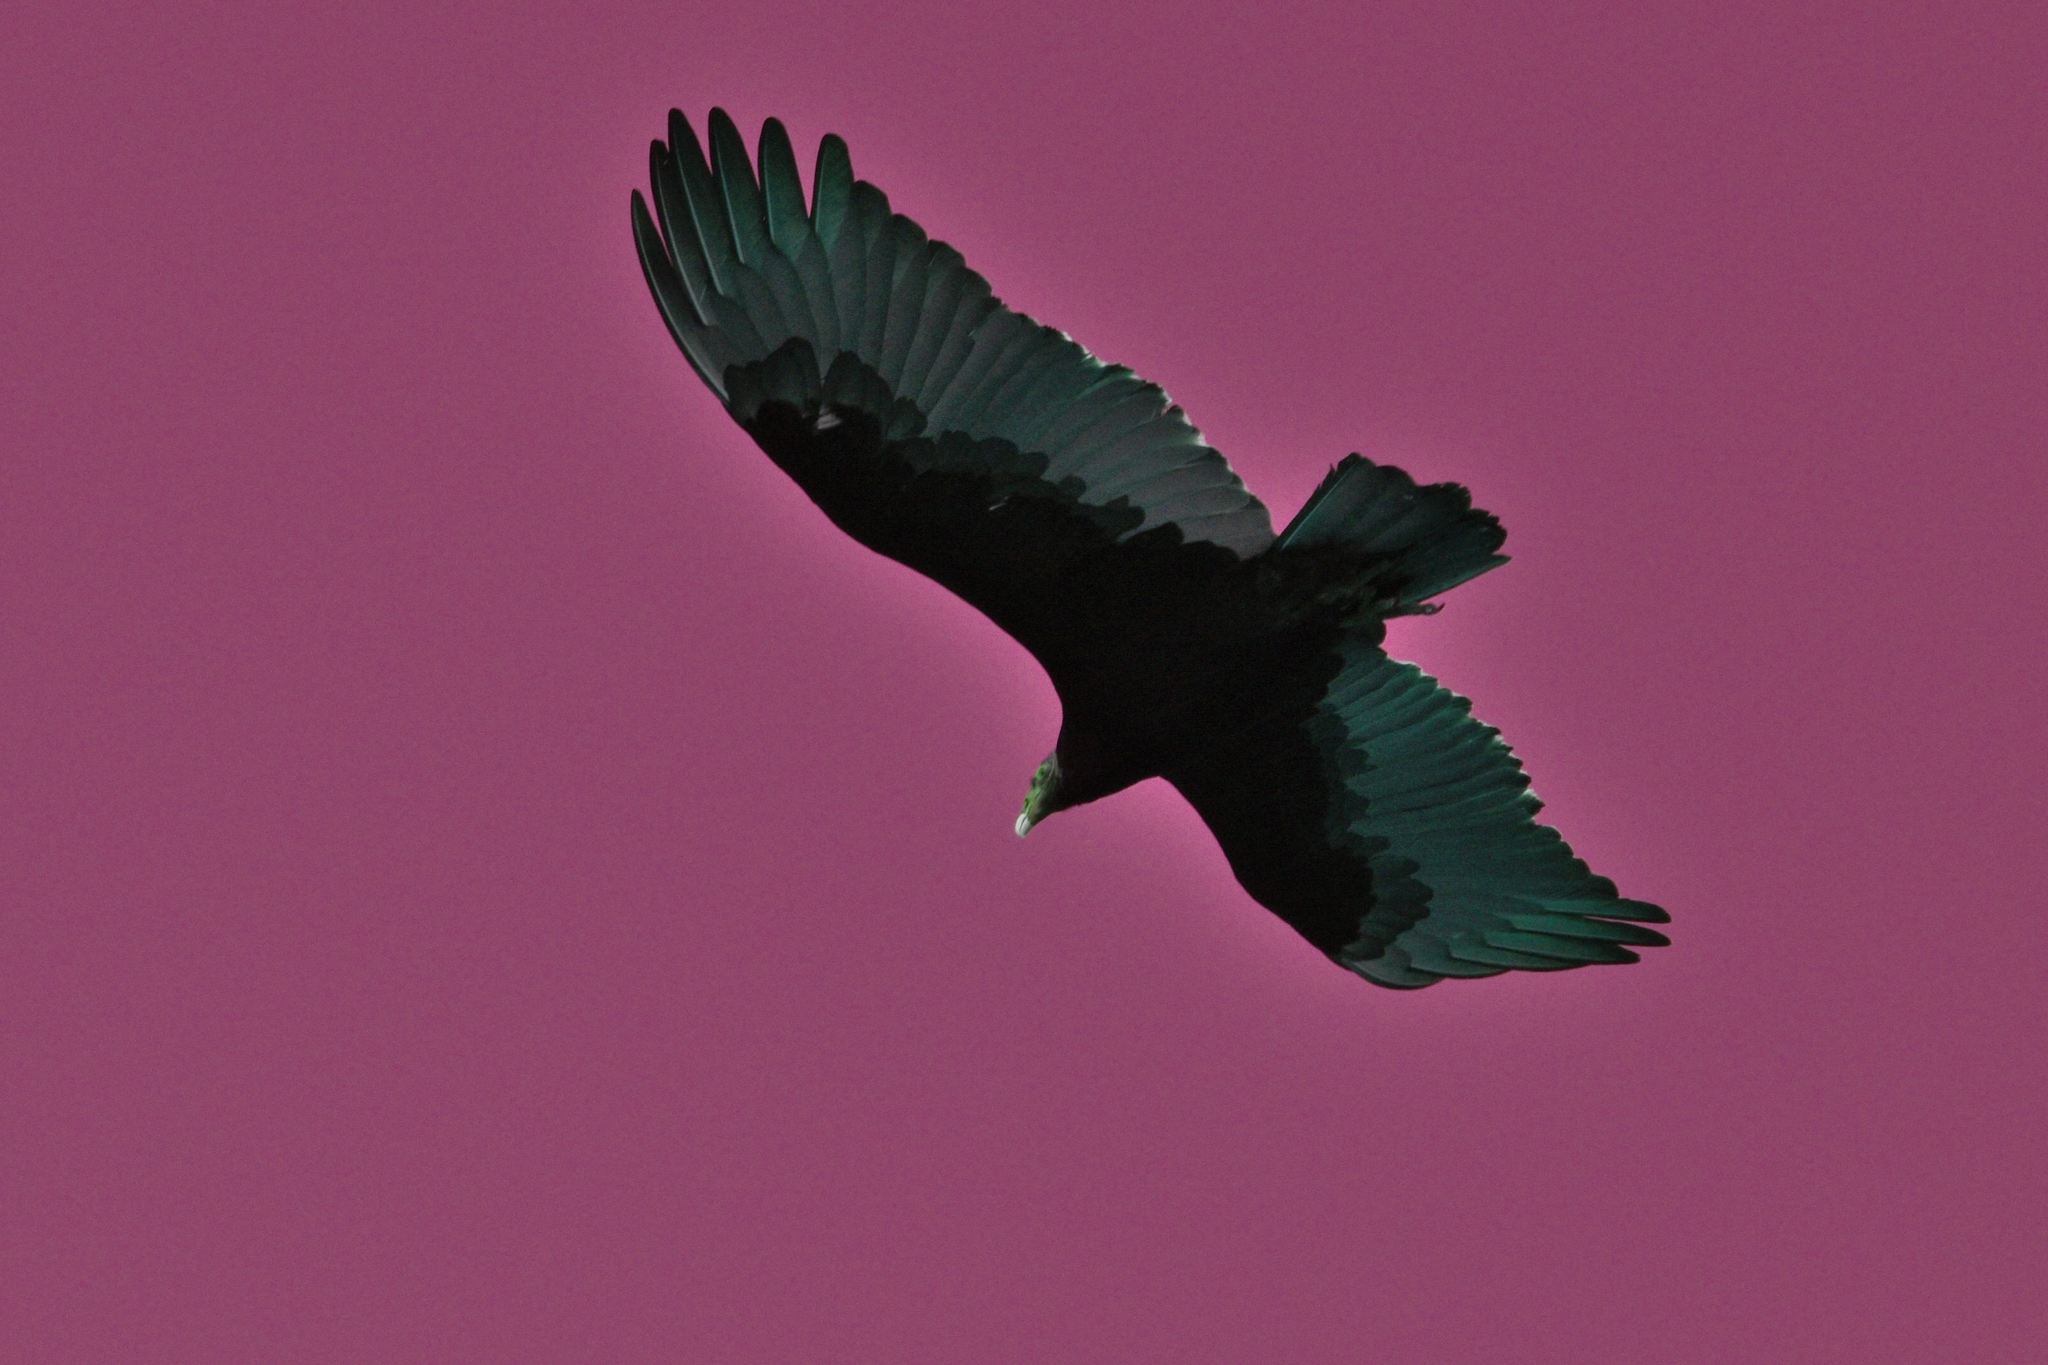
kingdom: Animalia
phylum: Chordata
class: Aves
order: Accipitriformes
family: Cathartidae
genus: Cathartes
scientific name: Cathartes aura
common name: Turkey vulture
